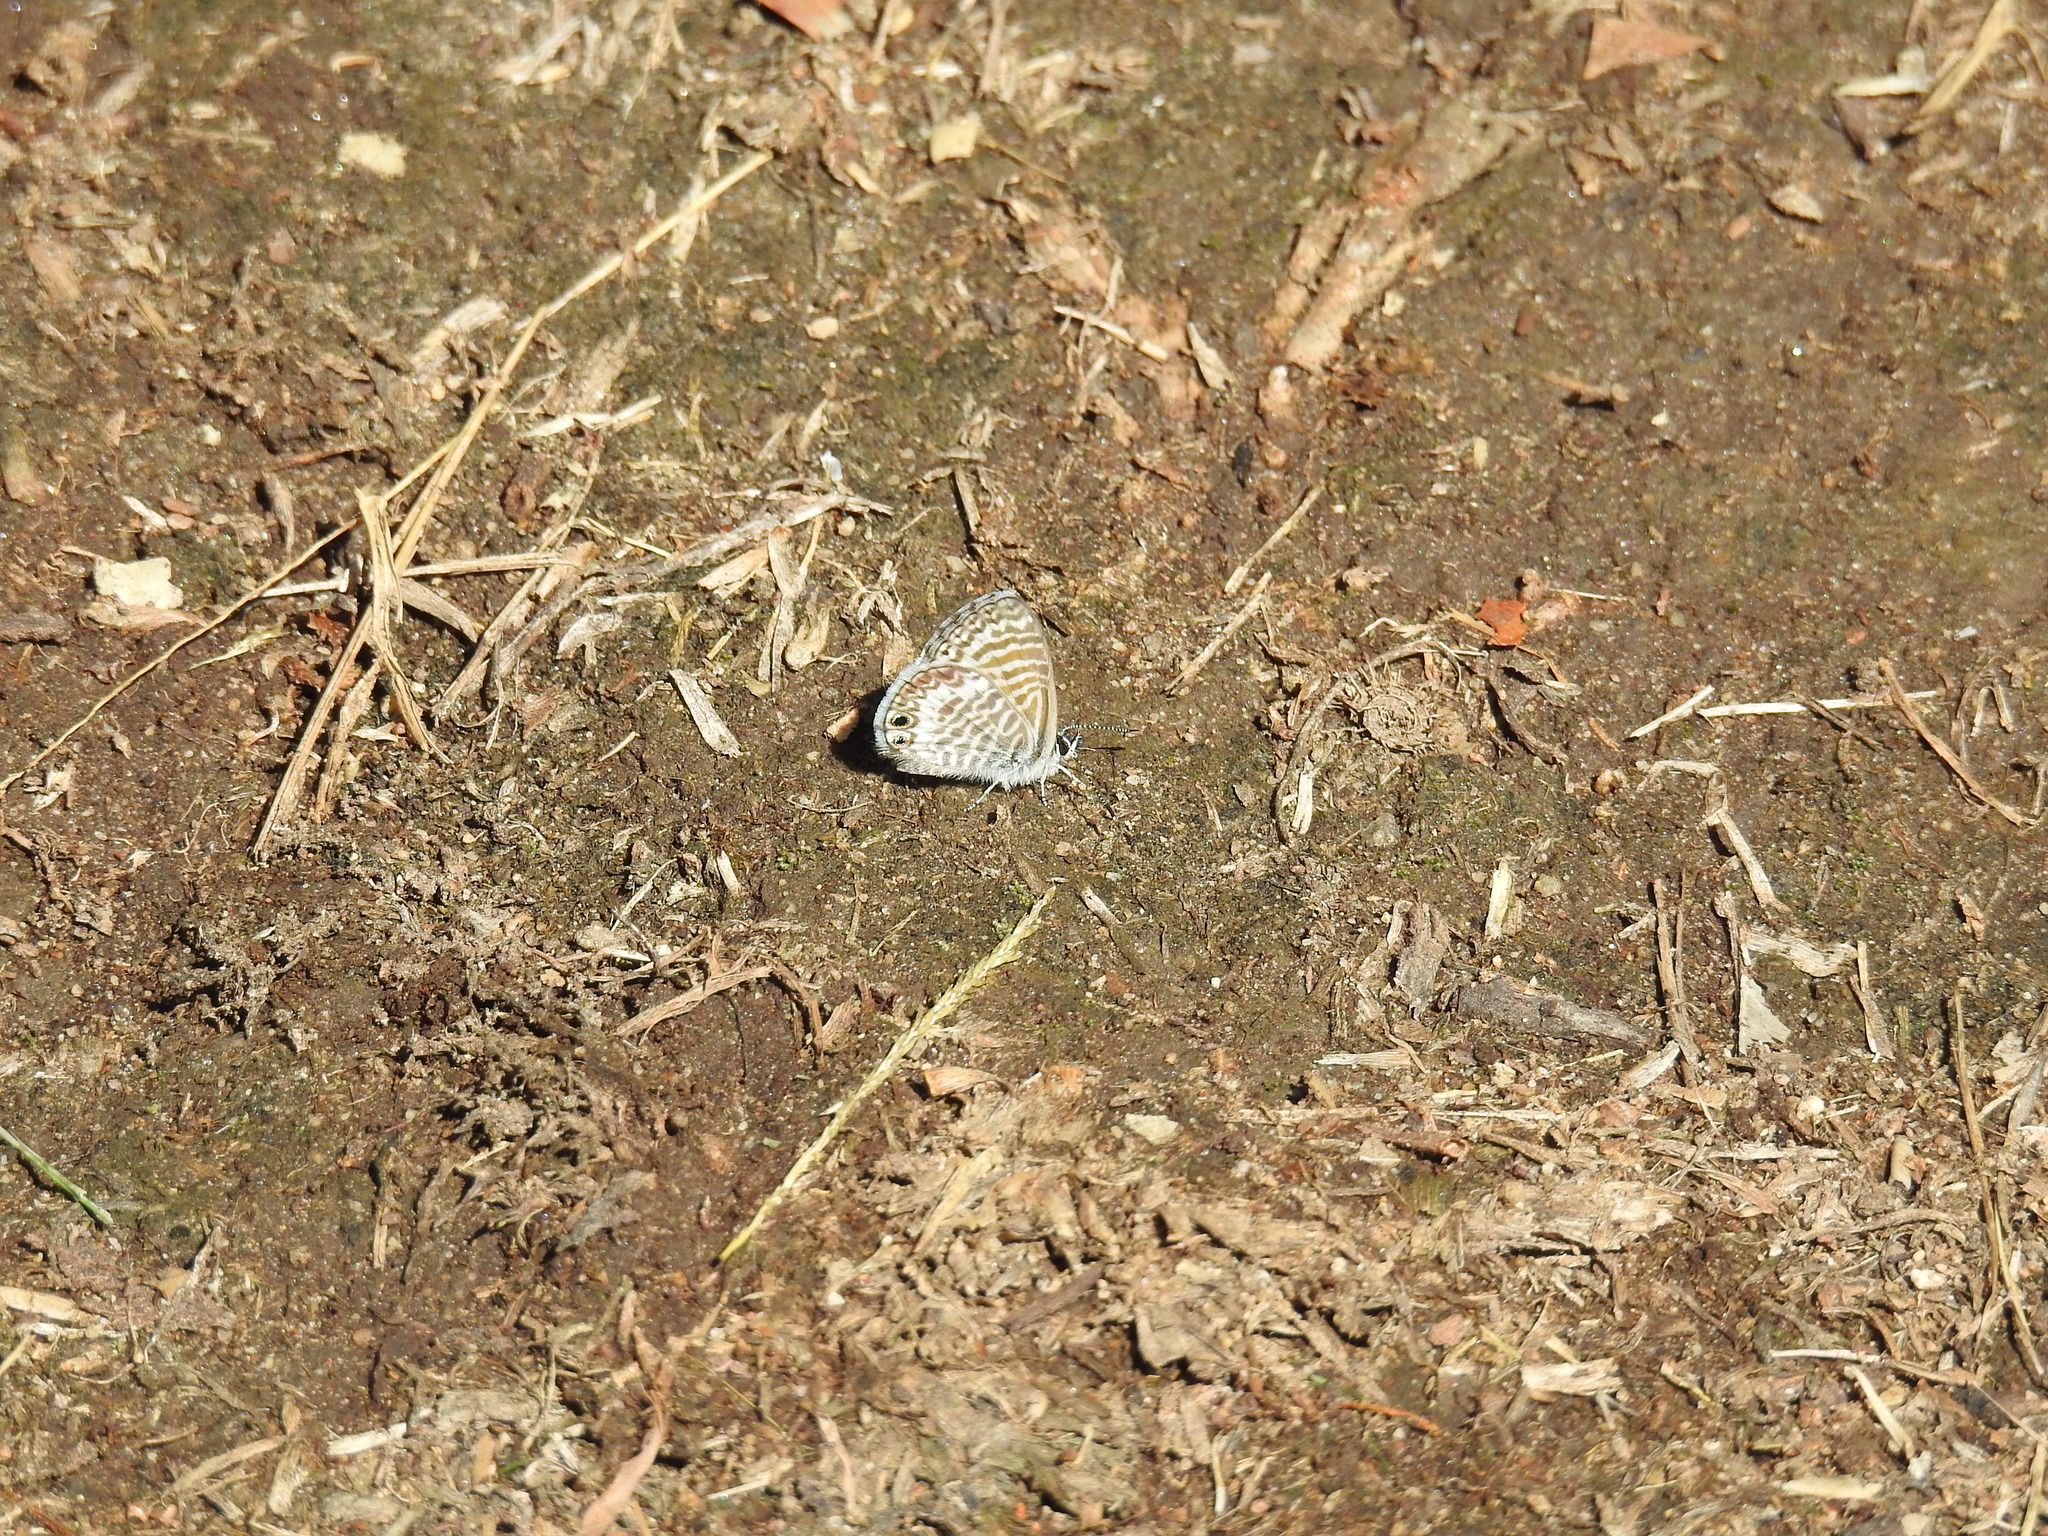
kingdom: Animalia
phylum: Arthropoda
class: Insecta
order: Lepidoptera
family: Lycaenidae
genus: Leptotes
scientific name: Leptotes marina
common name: Marine blue
